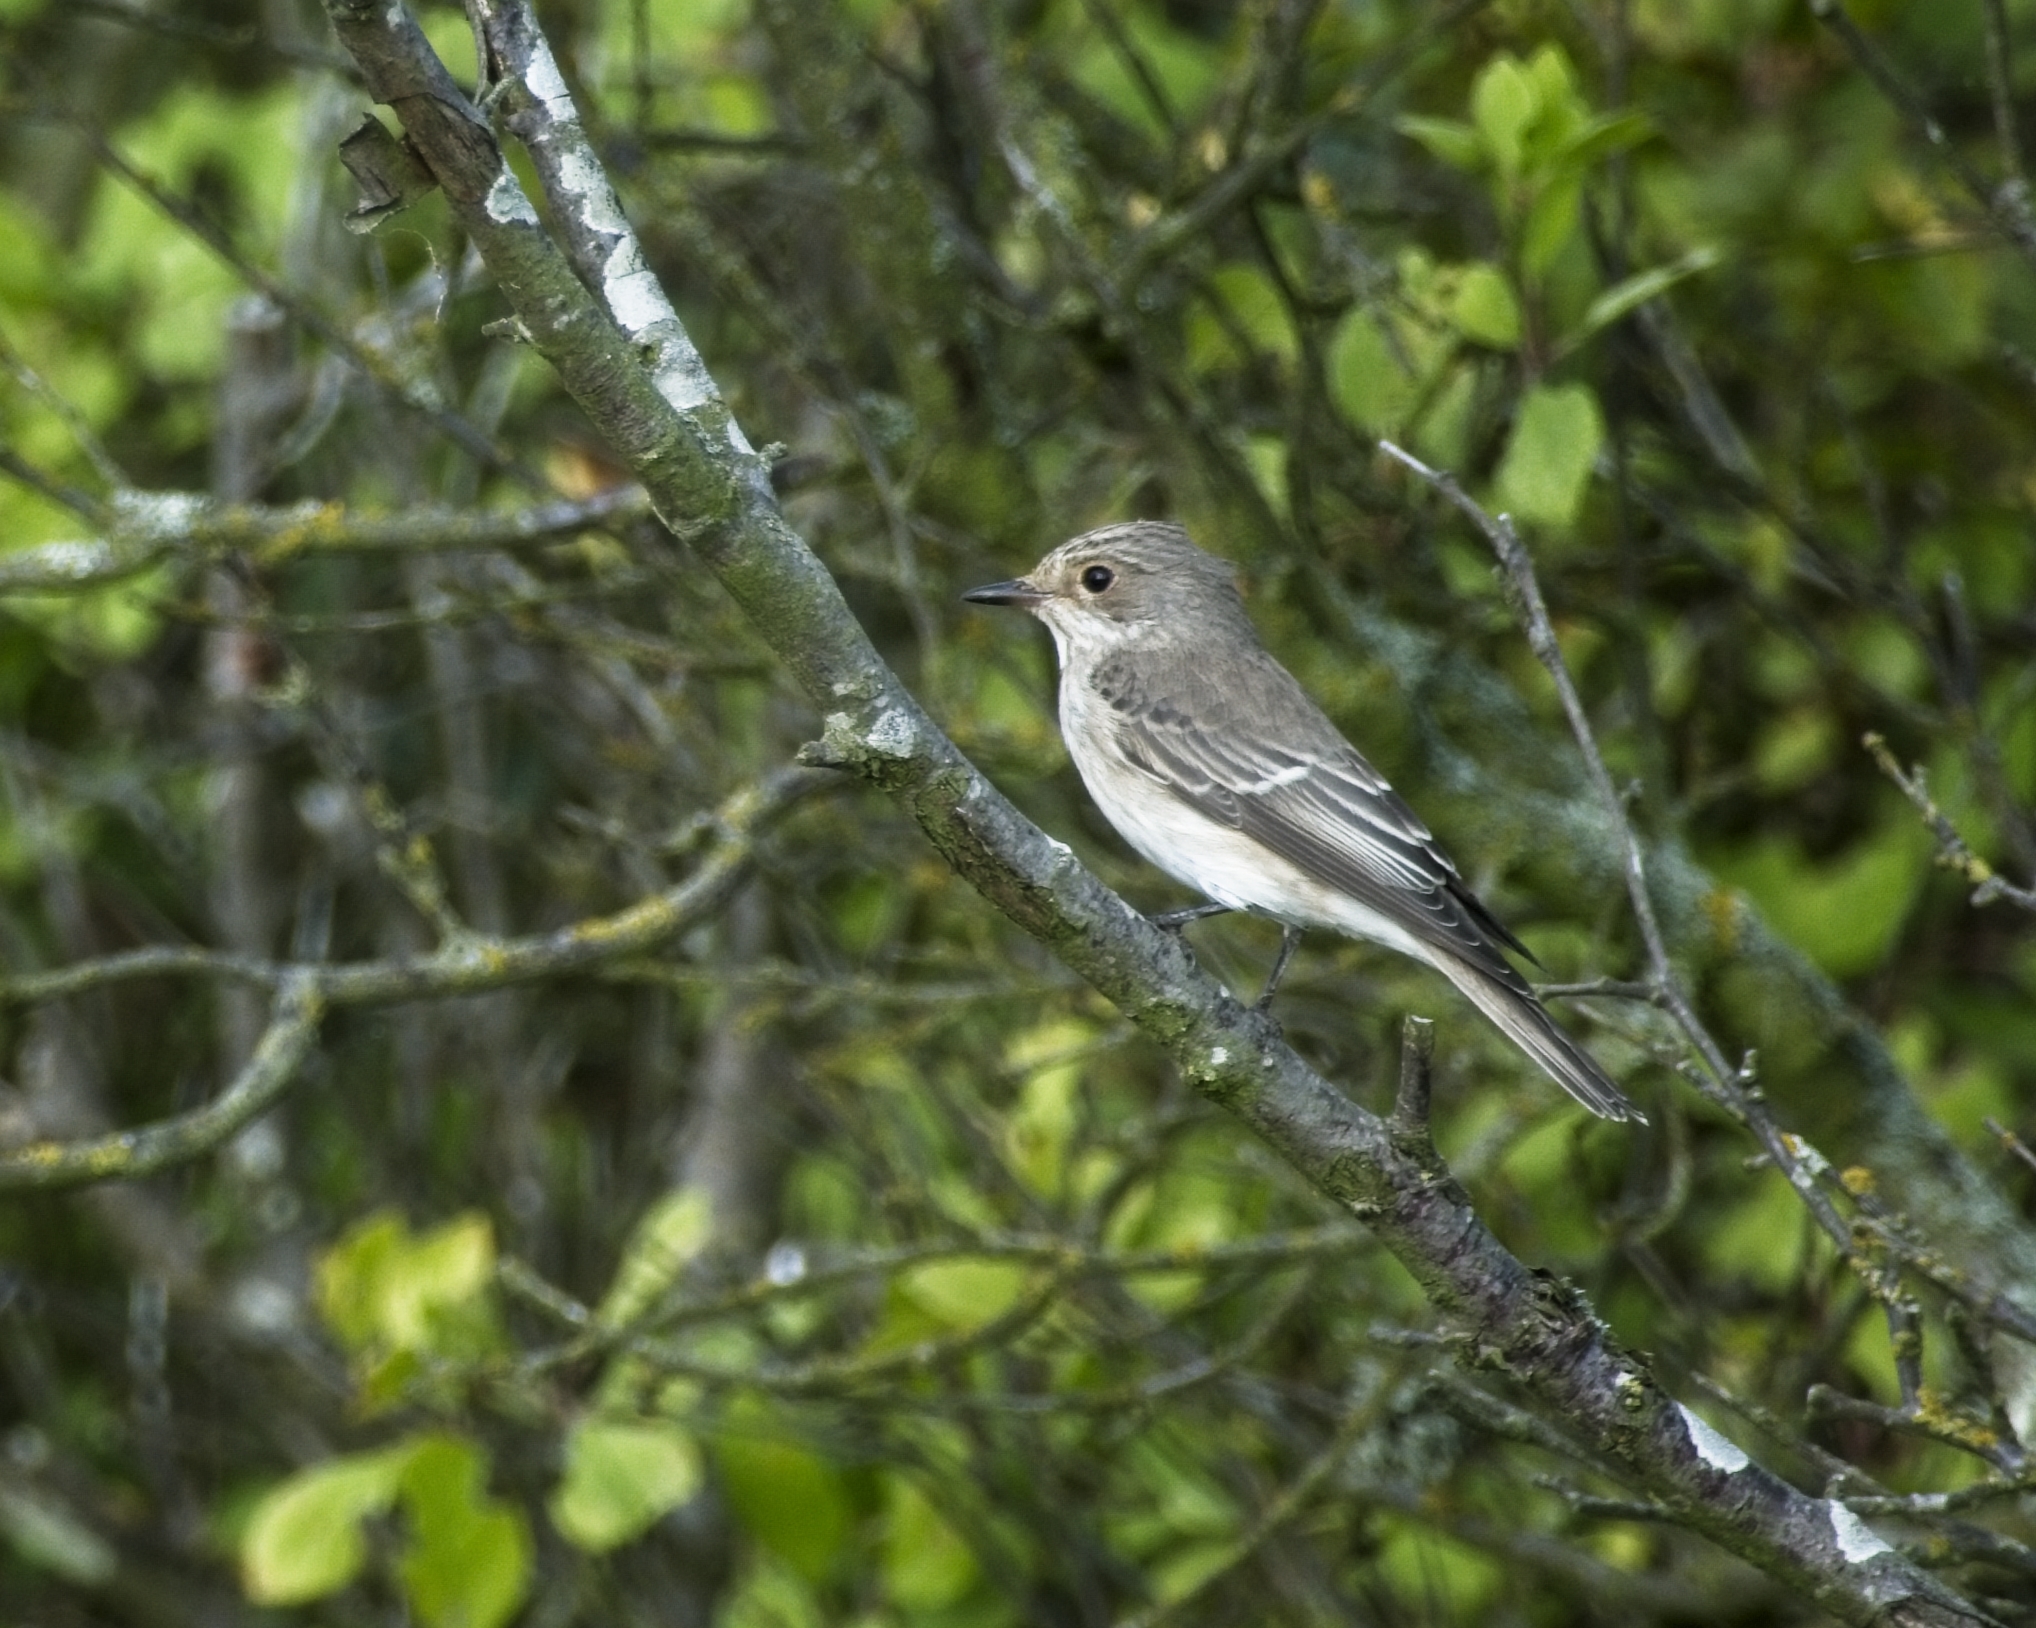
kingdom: Animalia
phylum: Chordata
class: Aves
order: Passeriformes
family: Muscicapidae
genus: Muscicapa
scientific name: Muscicapa striata
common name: Spotted flycatcher
